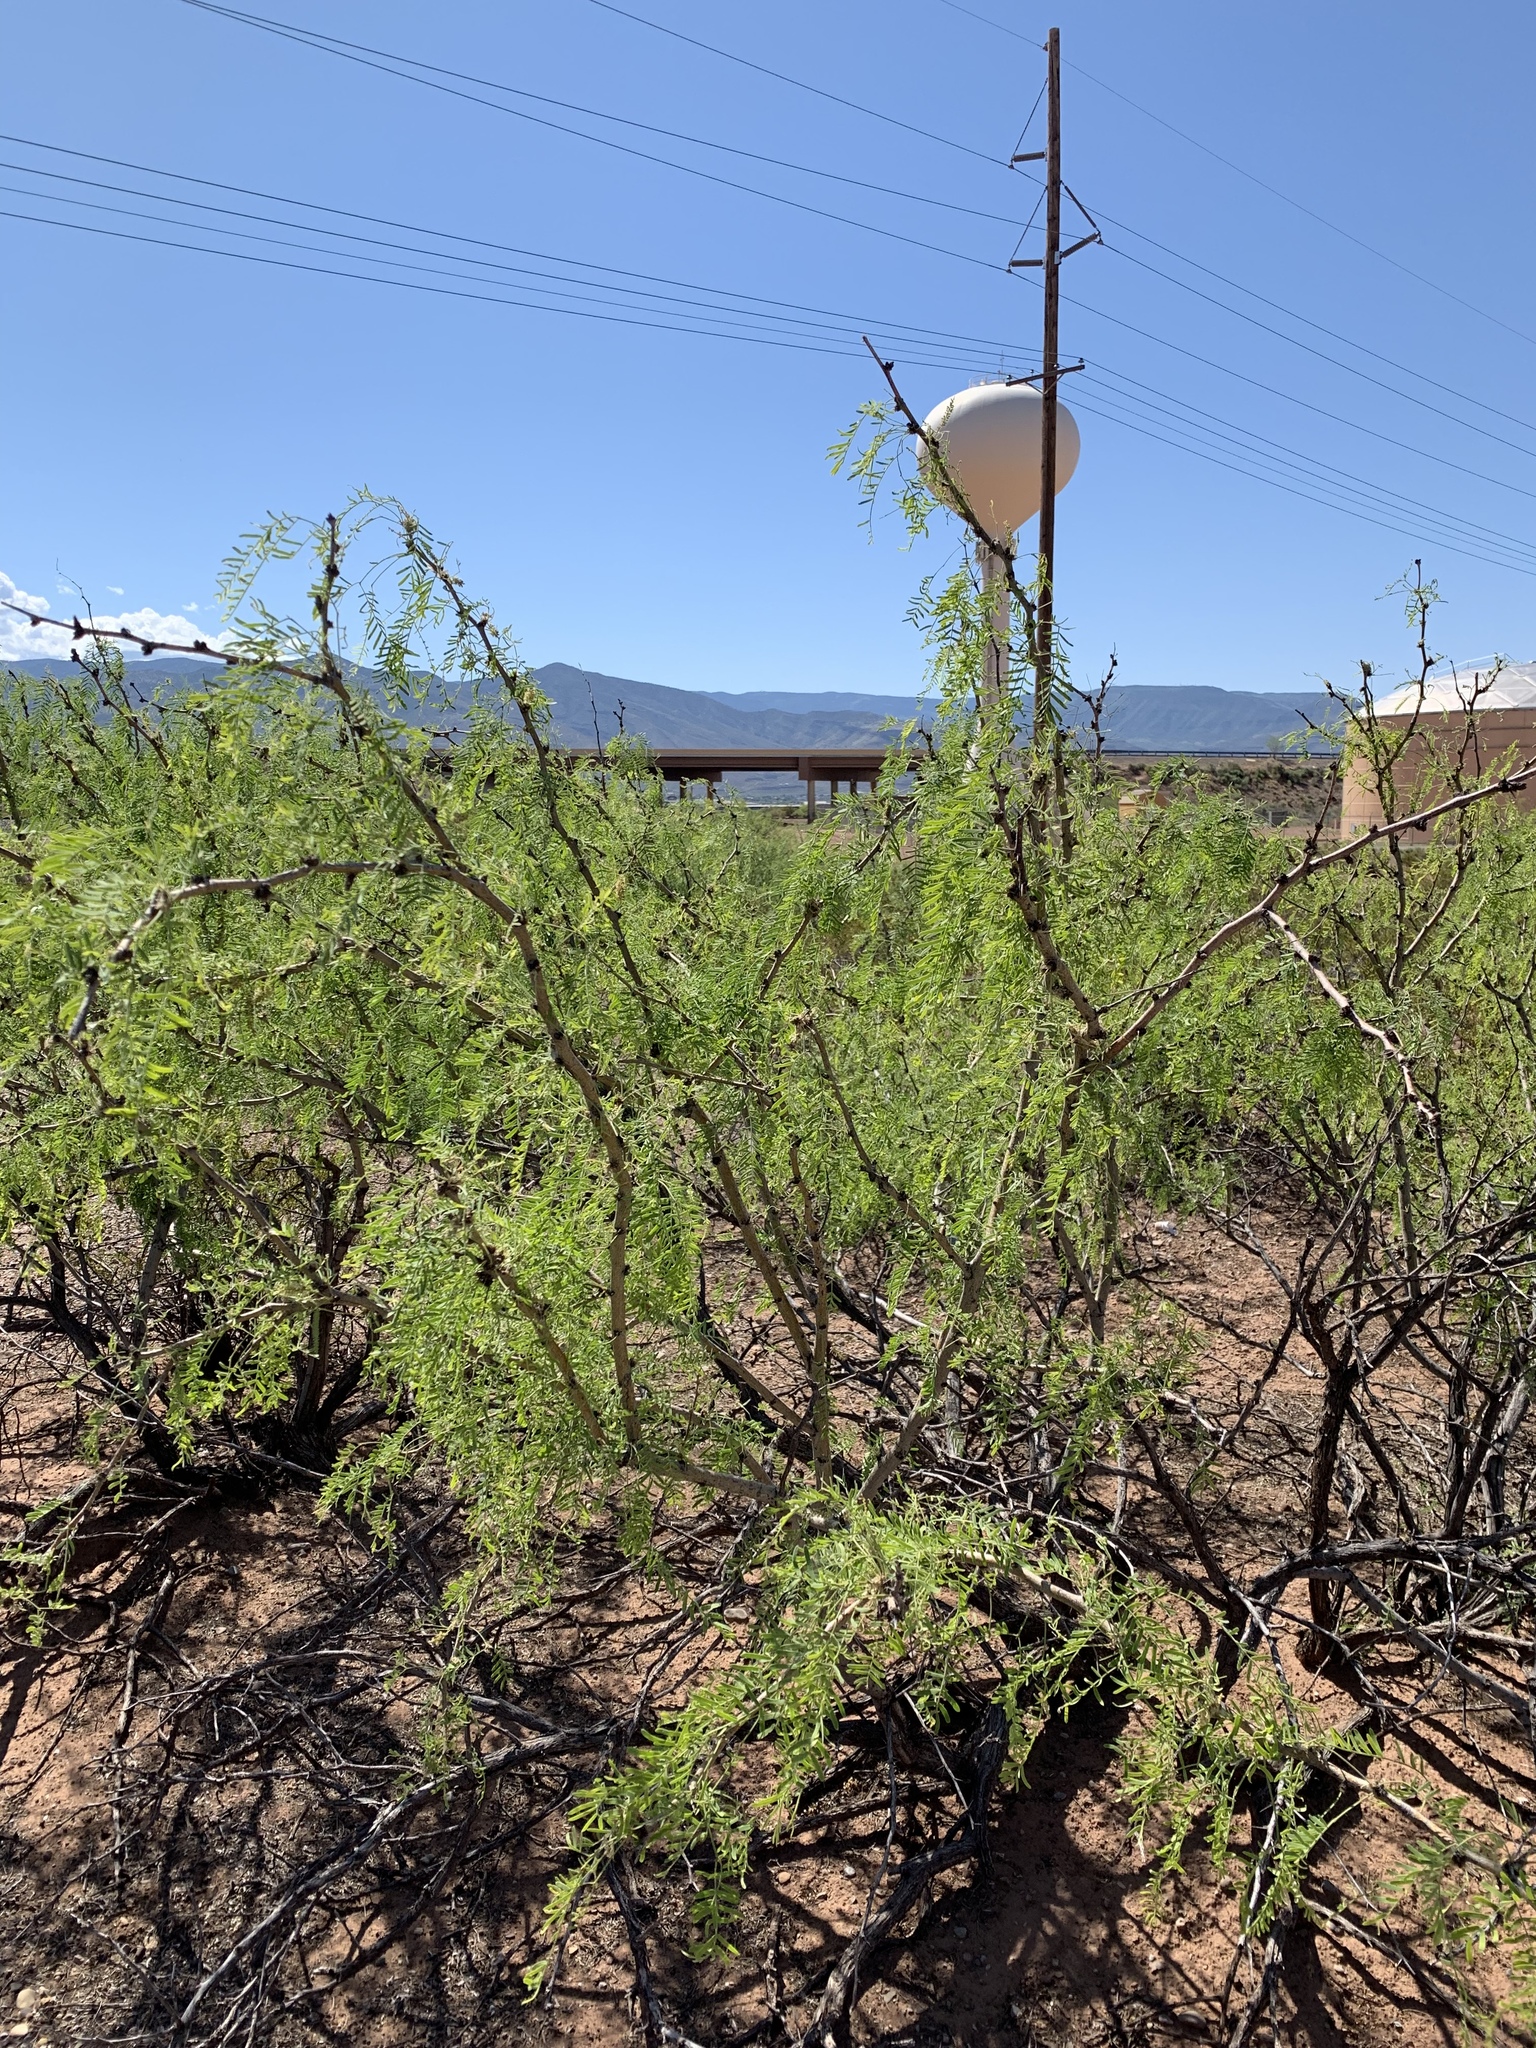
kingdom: Plantae
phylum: Tracheophyta
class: Magnoliopsida
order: Fabales
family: Fabaceae
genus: Prosopis
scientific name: Prosopis glandulosa
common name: Honey mesquite
